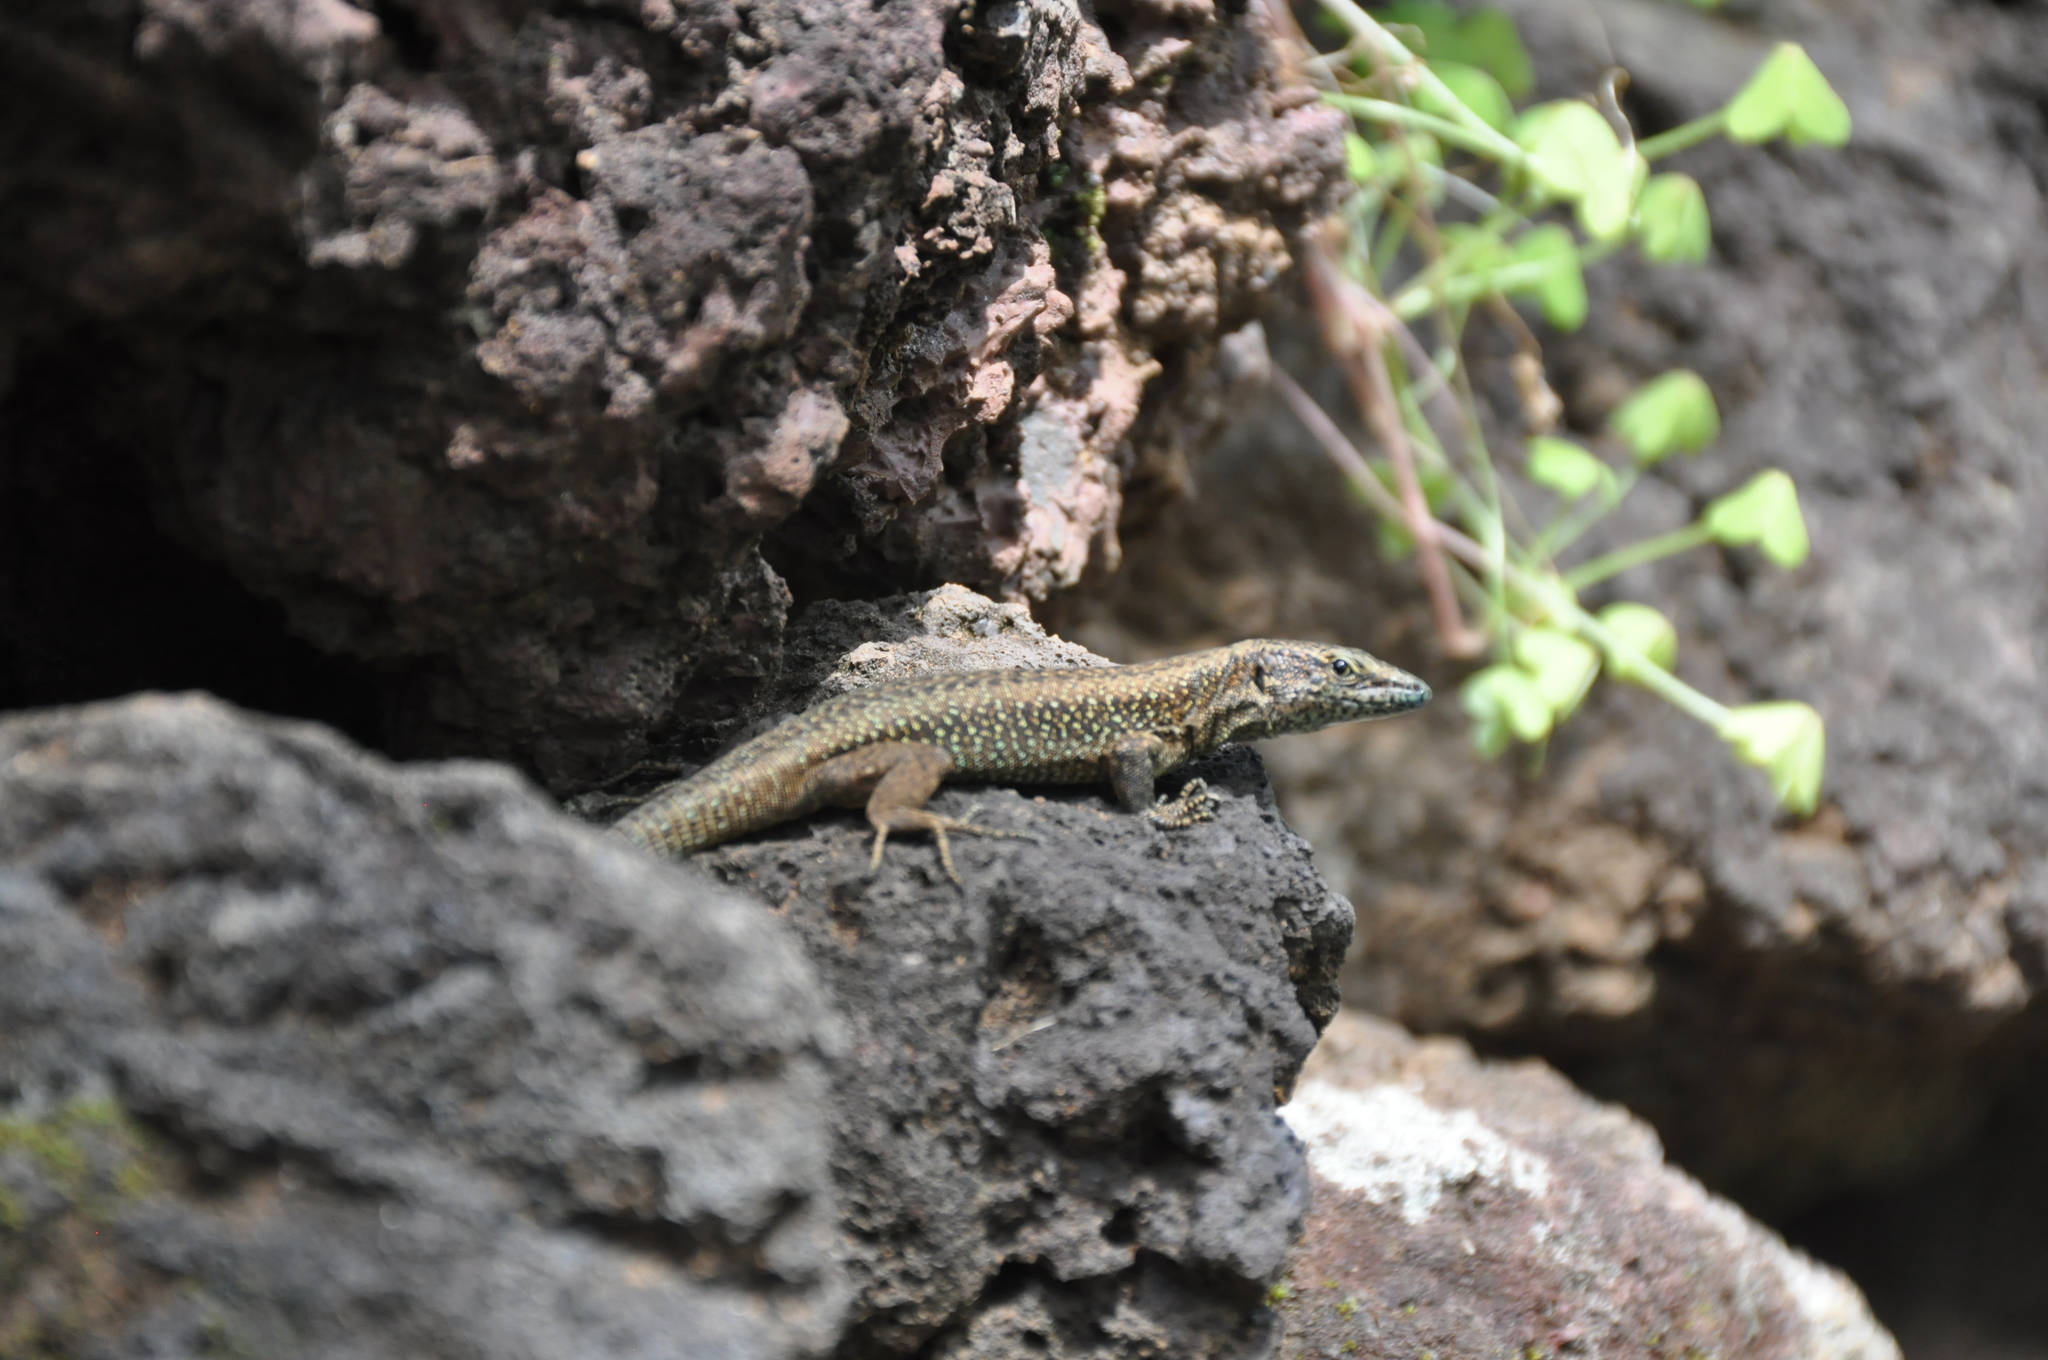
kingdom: Animalia
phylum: Chordata
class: Squamata
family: Lacertidae
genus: Teira
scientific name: Teira dugesii
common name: Madeira lizard
